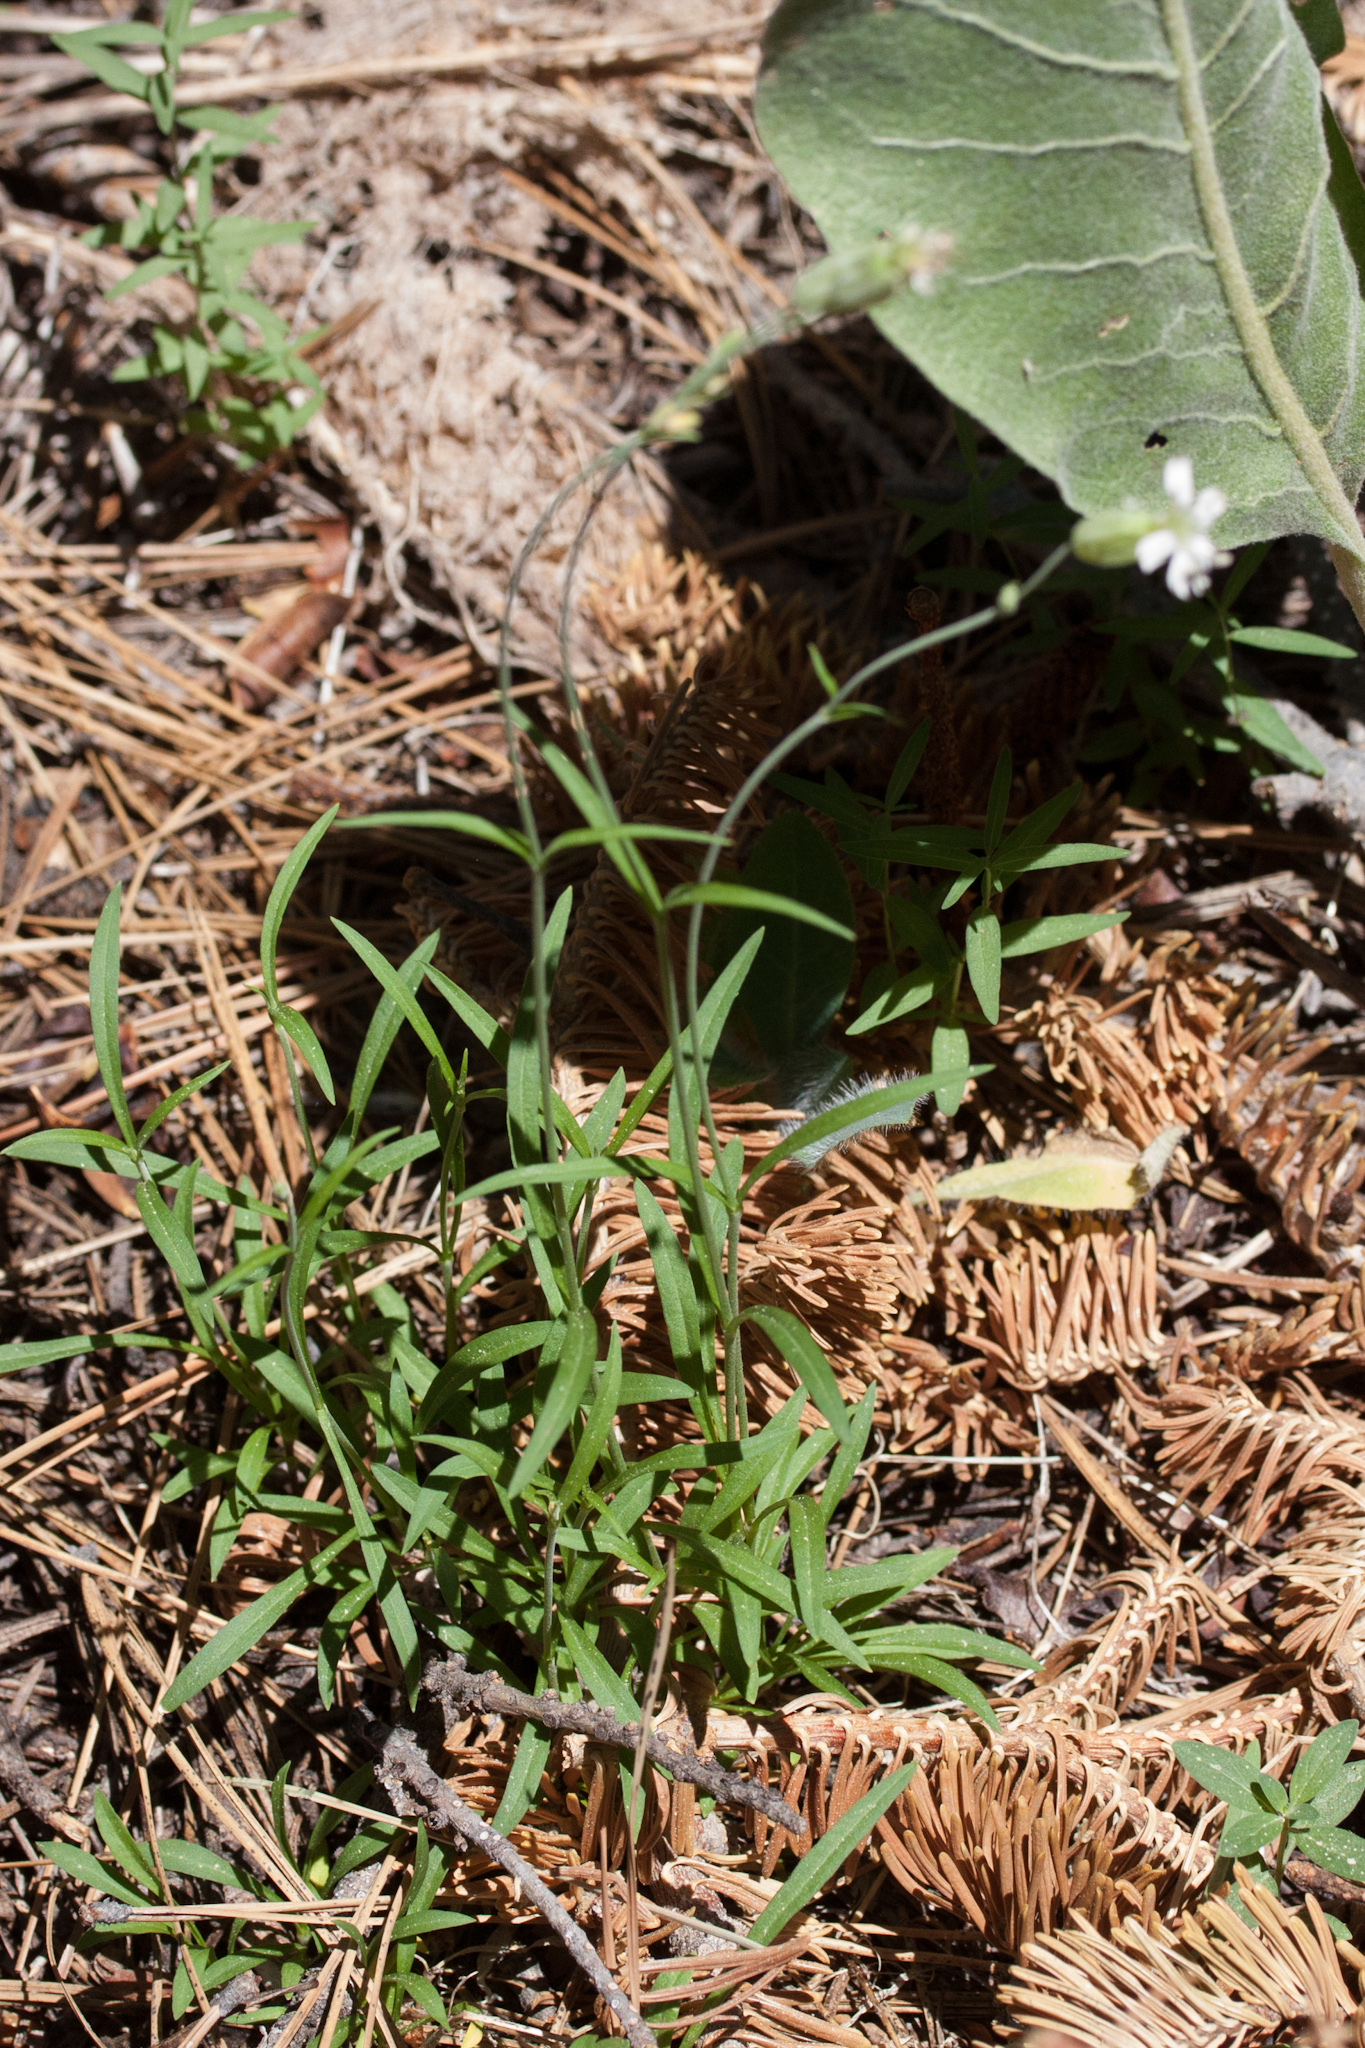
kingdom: Plantae
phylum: Tracheophyta
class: Magnoliopsida
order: Caryophyllales
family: Caryophyllaceae
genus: Silene
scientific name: Silene douglasii
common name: Douglas's catchfly
